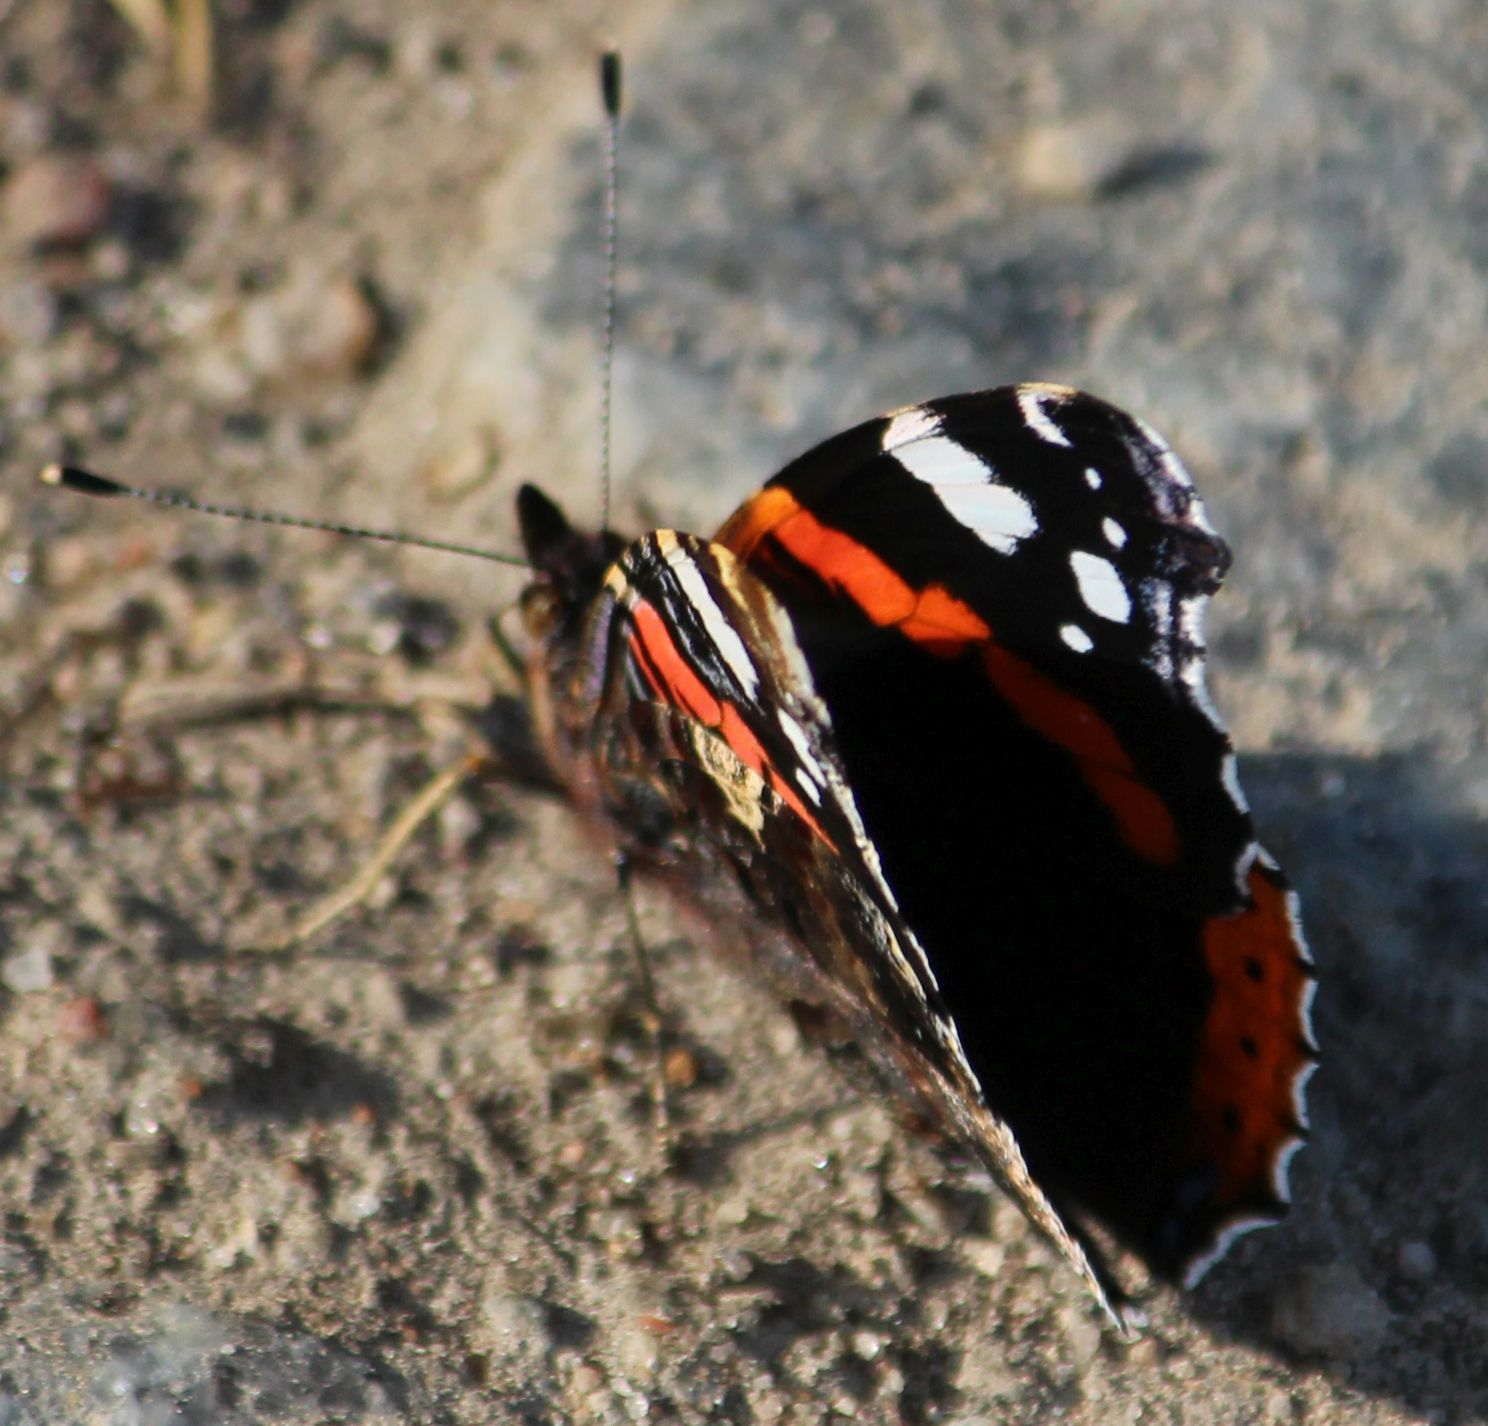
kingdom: Animalia
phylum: Arthropoda
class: Insecta
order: Lepidoptera
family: Nymphalidae
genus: Vanessa
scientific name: Vanessa atalanta
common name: Red admiral
